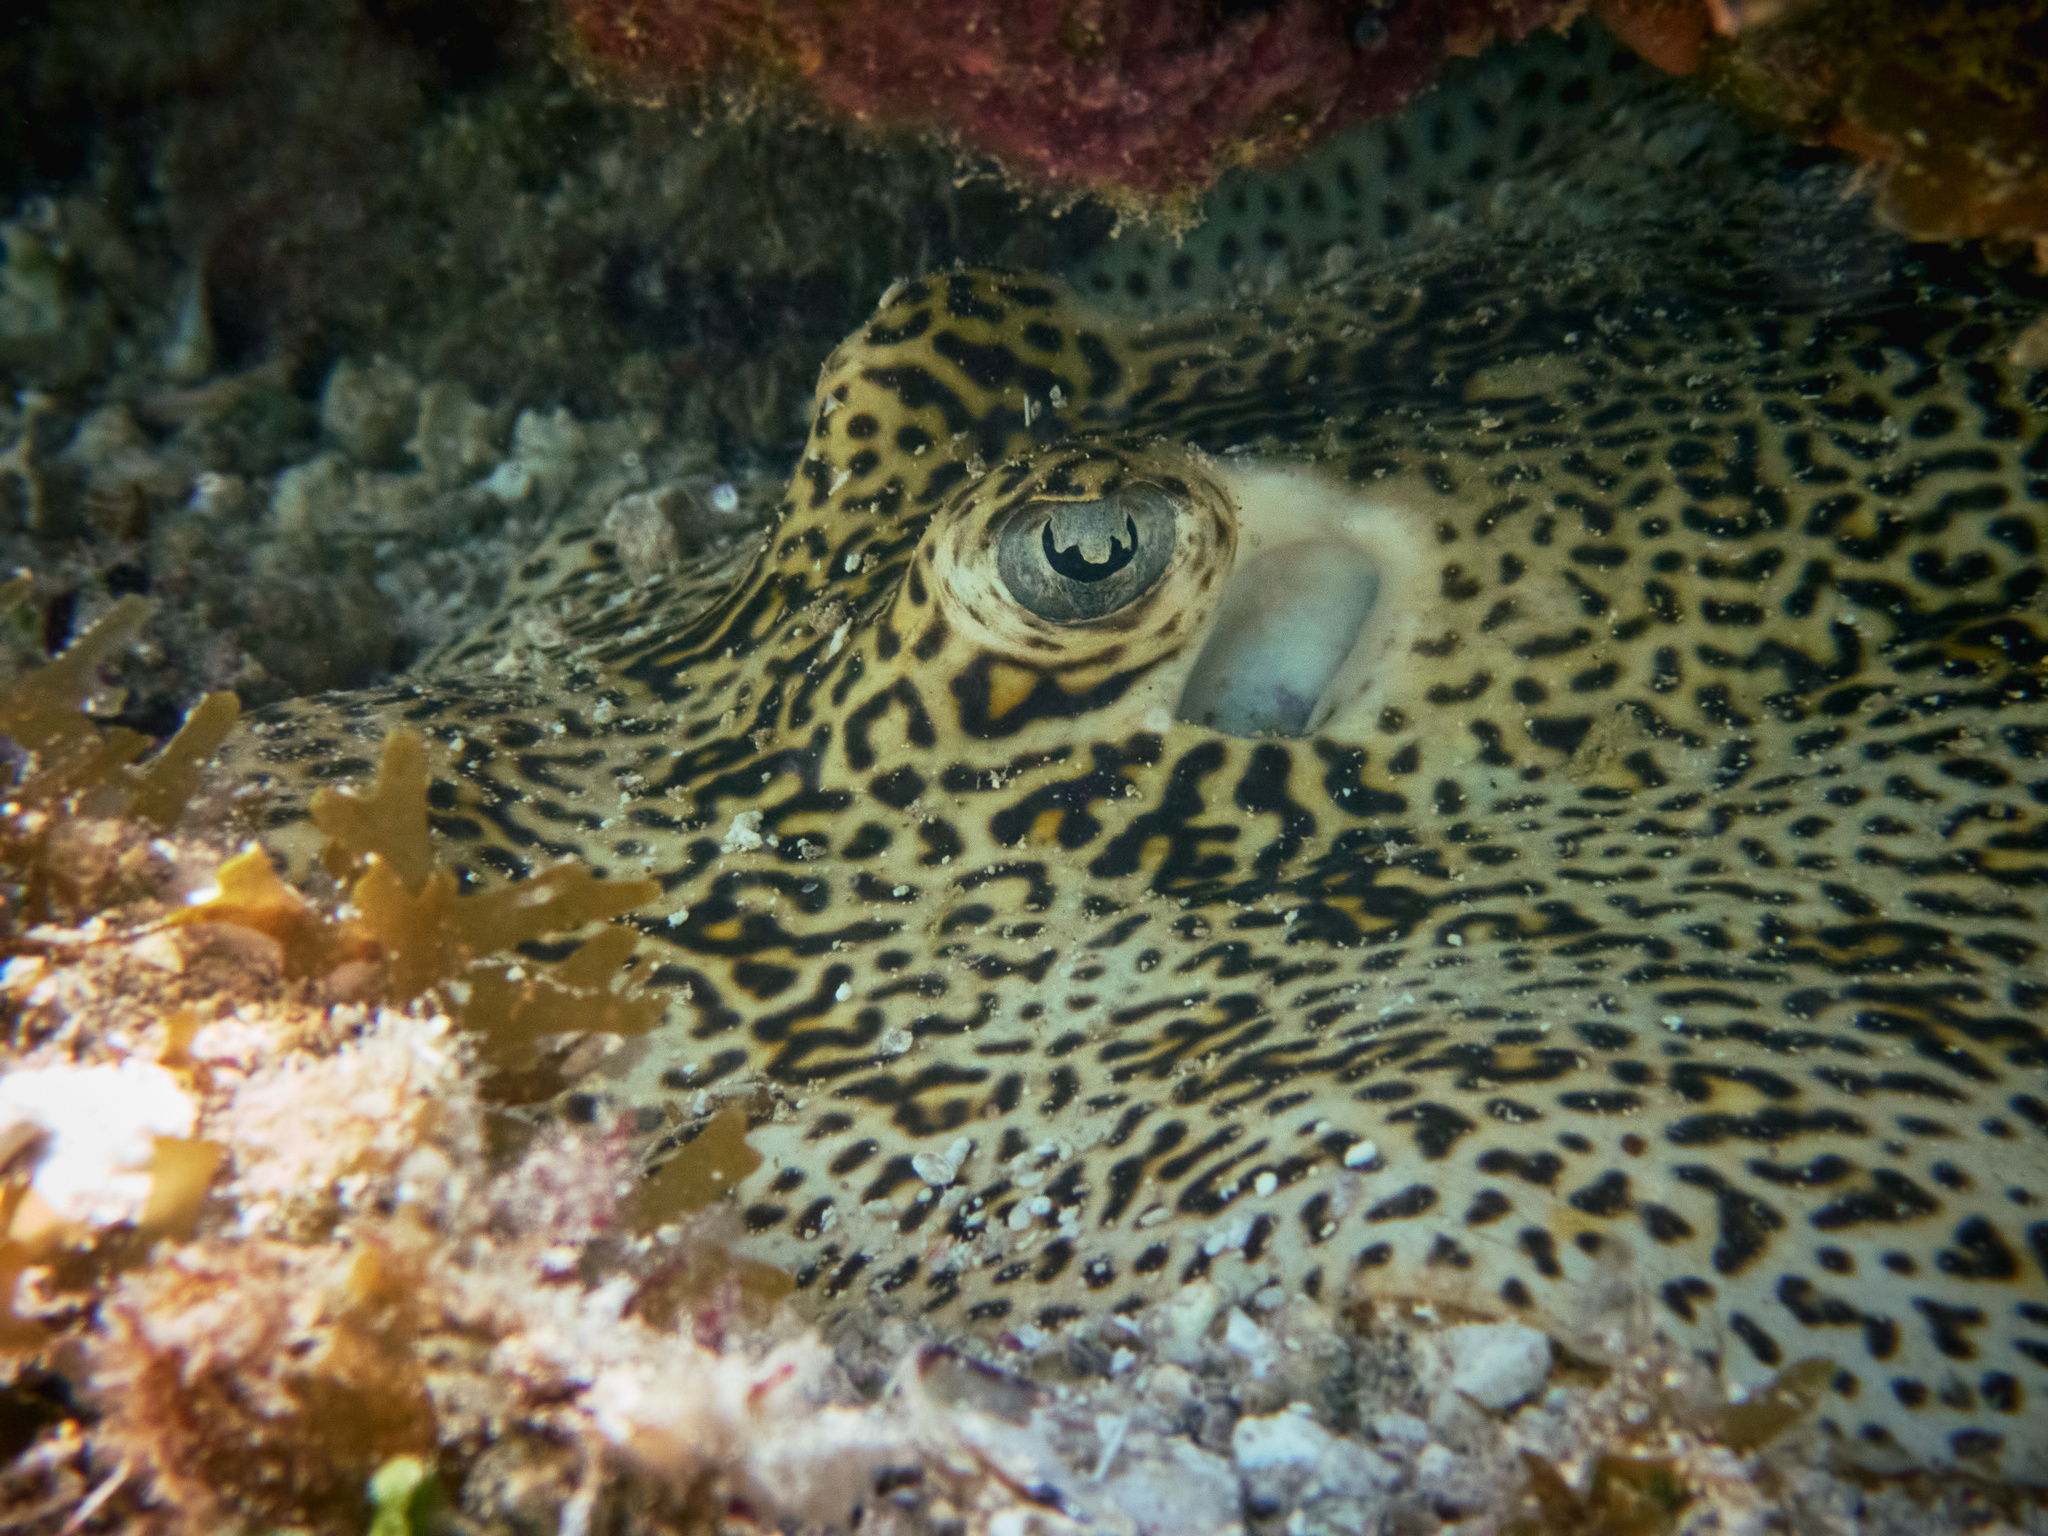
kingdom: Animalia
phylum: Chordata
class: Elasmobranchii
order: Myliobatiformes
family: Urotrygonidae
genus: Urobatis
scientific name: Urobatis jamaicensis
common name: Yellow stingray
